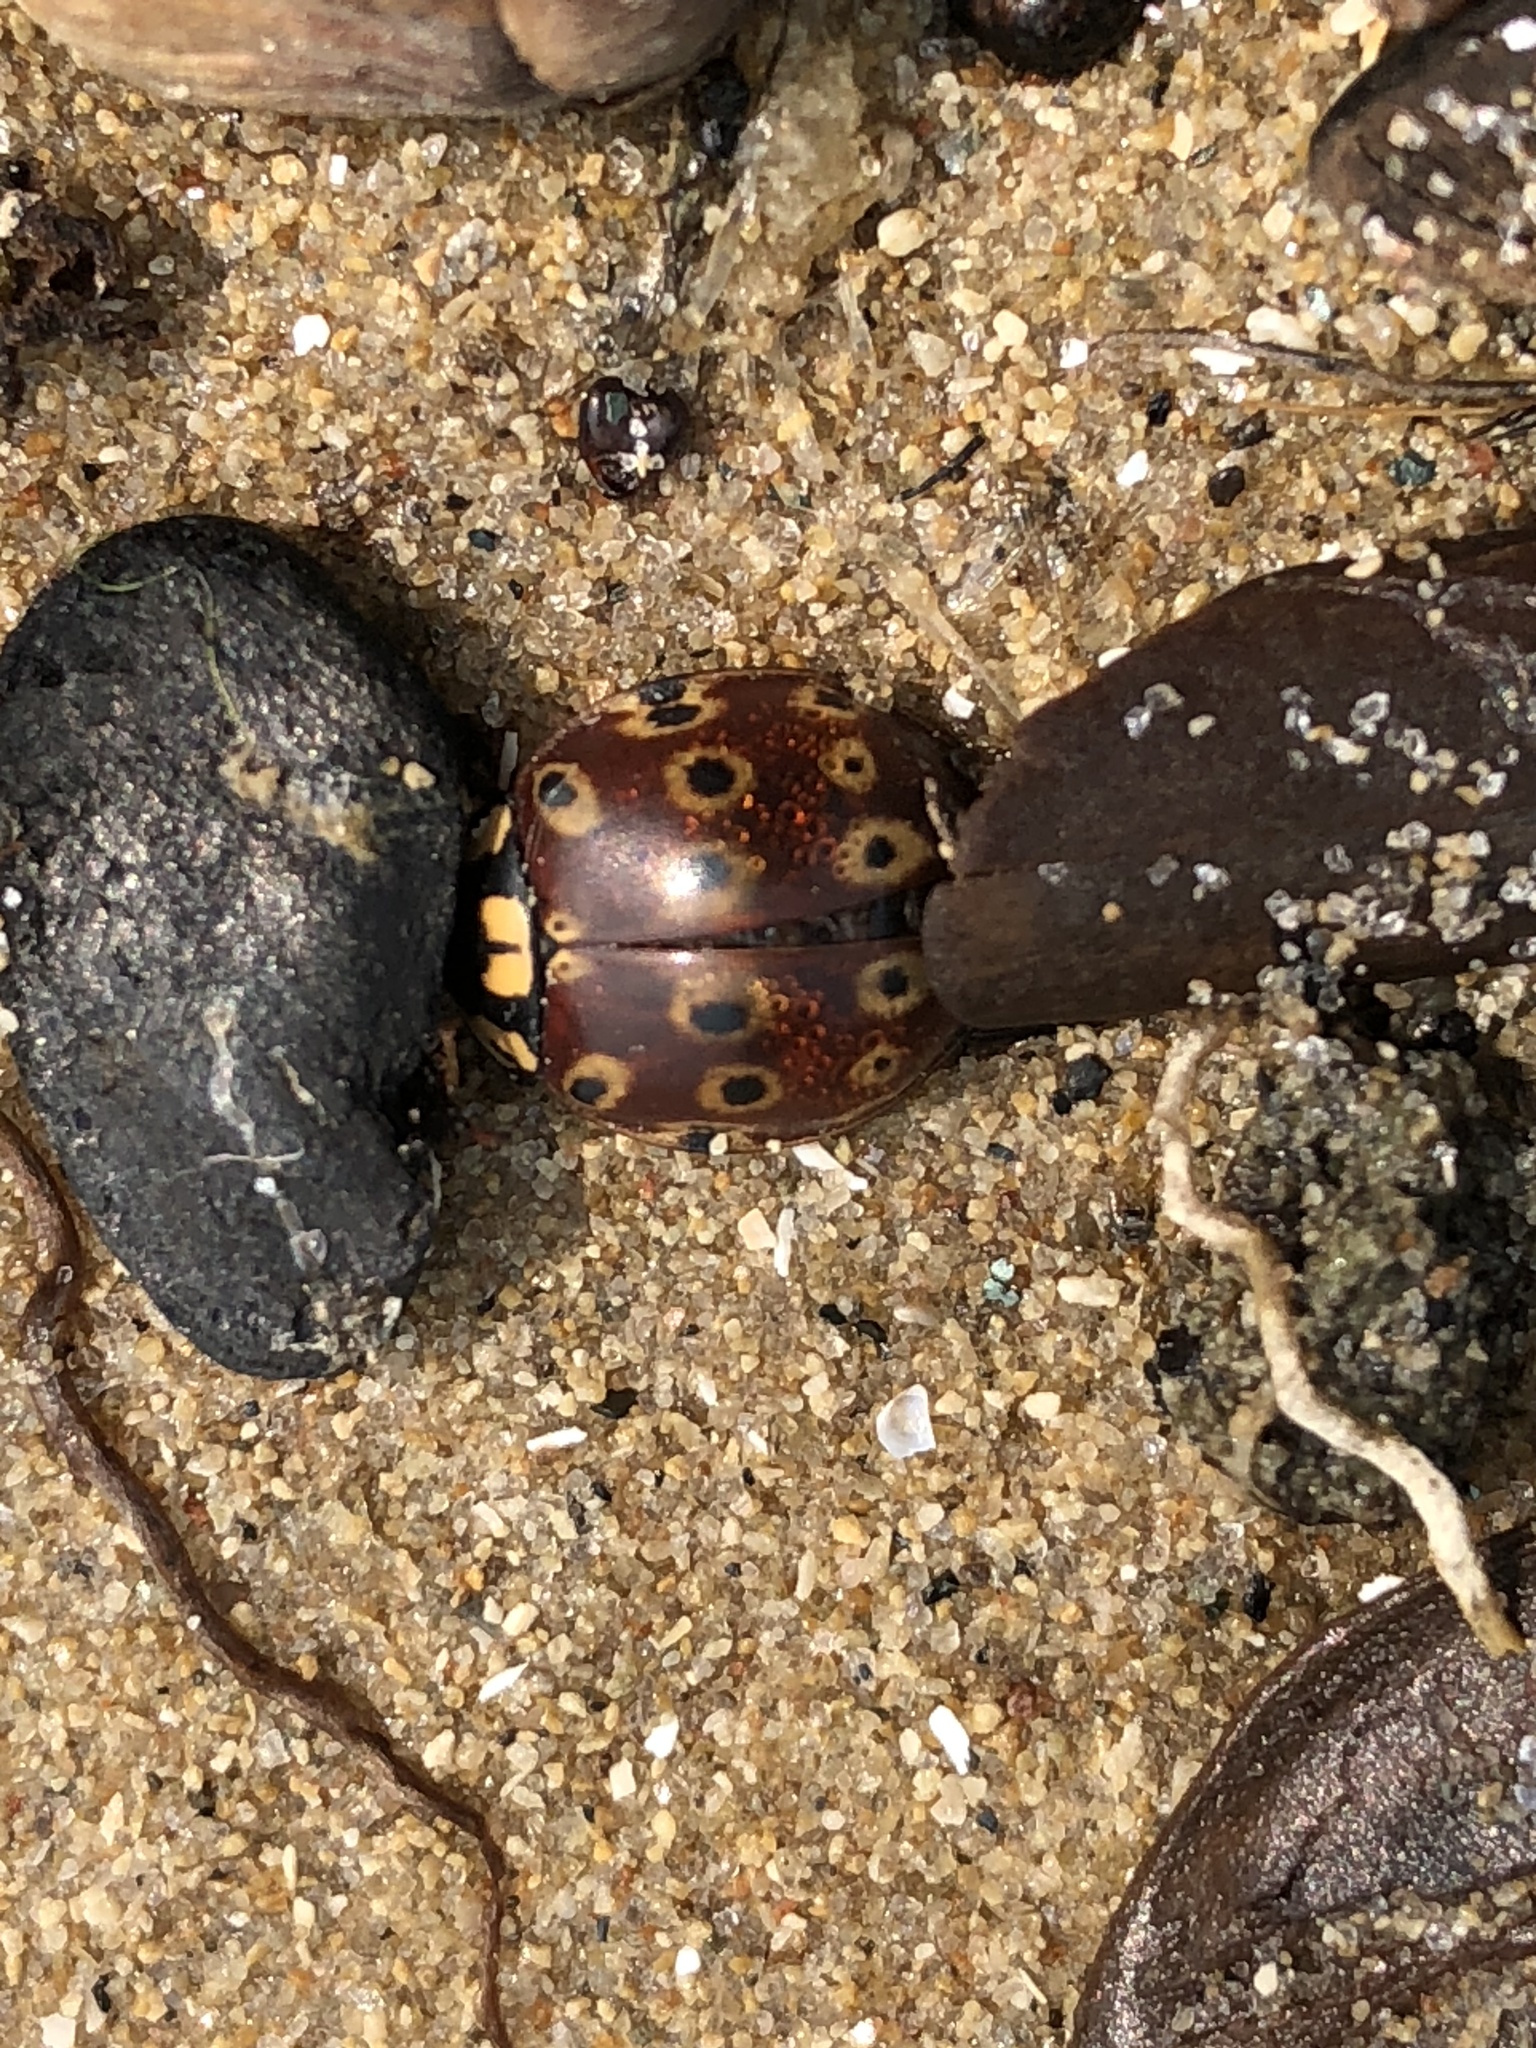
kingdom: Animalia
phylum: Arthropoda
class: Insecta
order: Coleoptera
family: Coccinellidae
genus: Anatis
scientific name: Anatis mali
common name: Eye-spotted lady beetle
